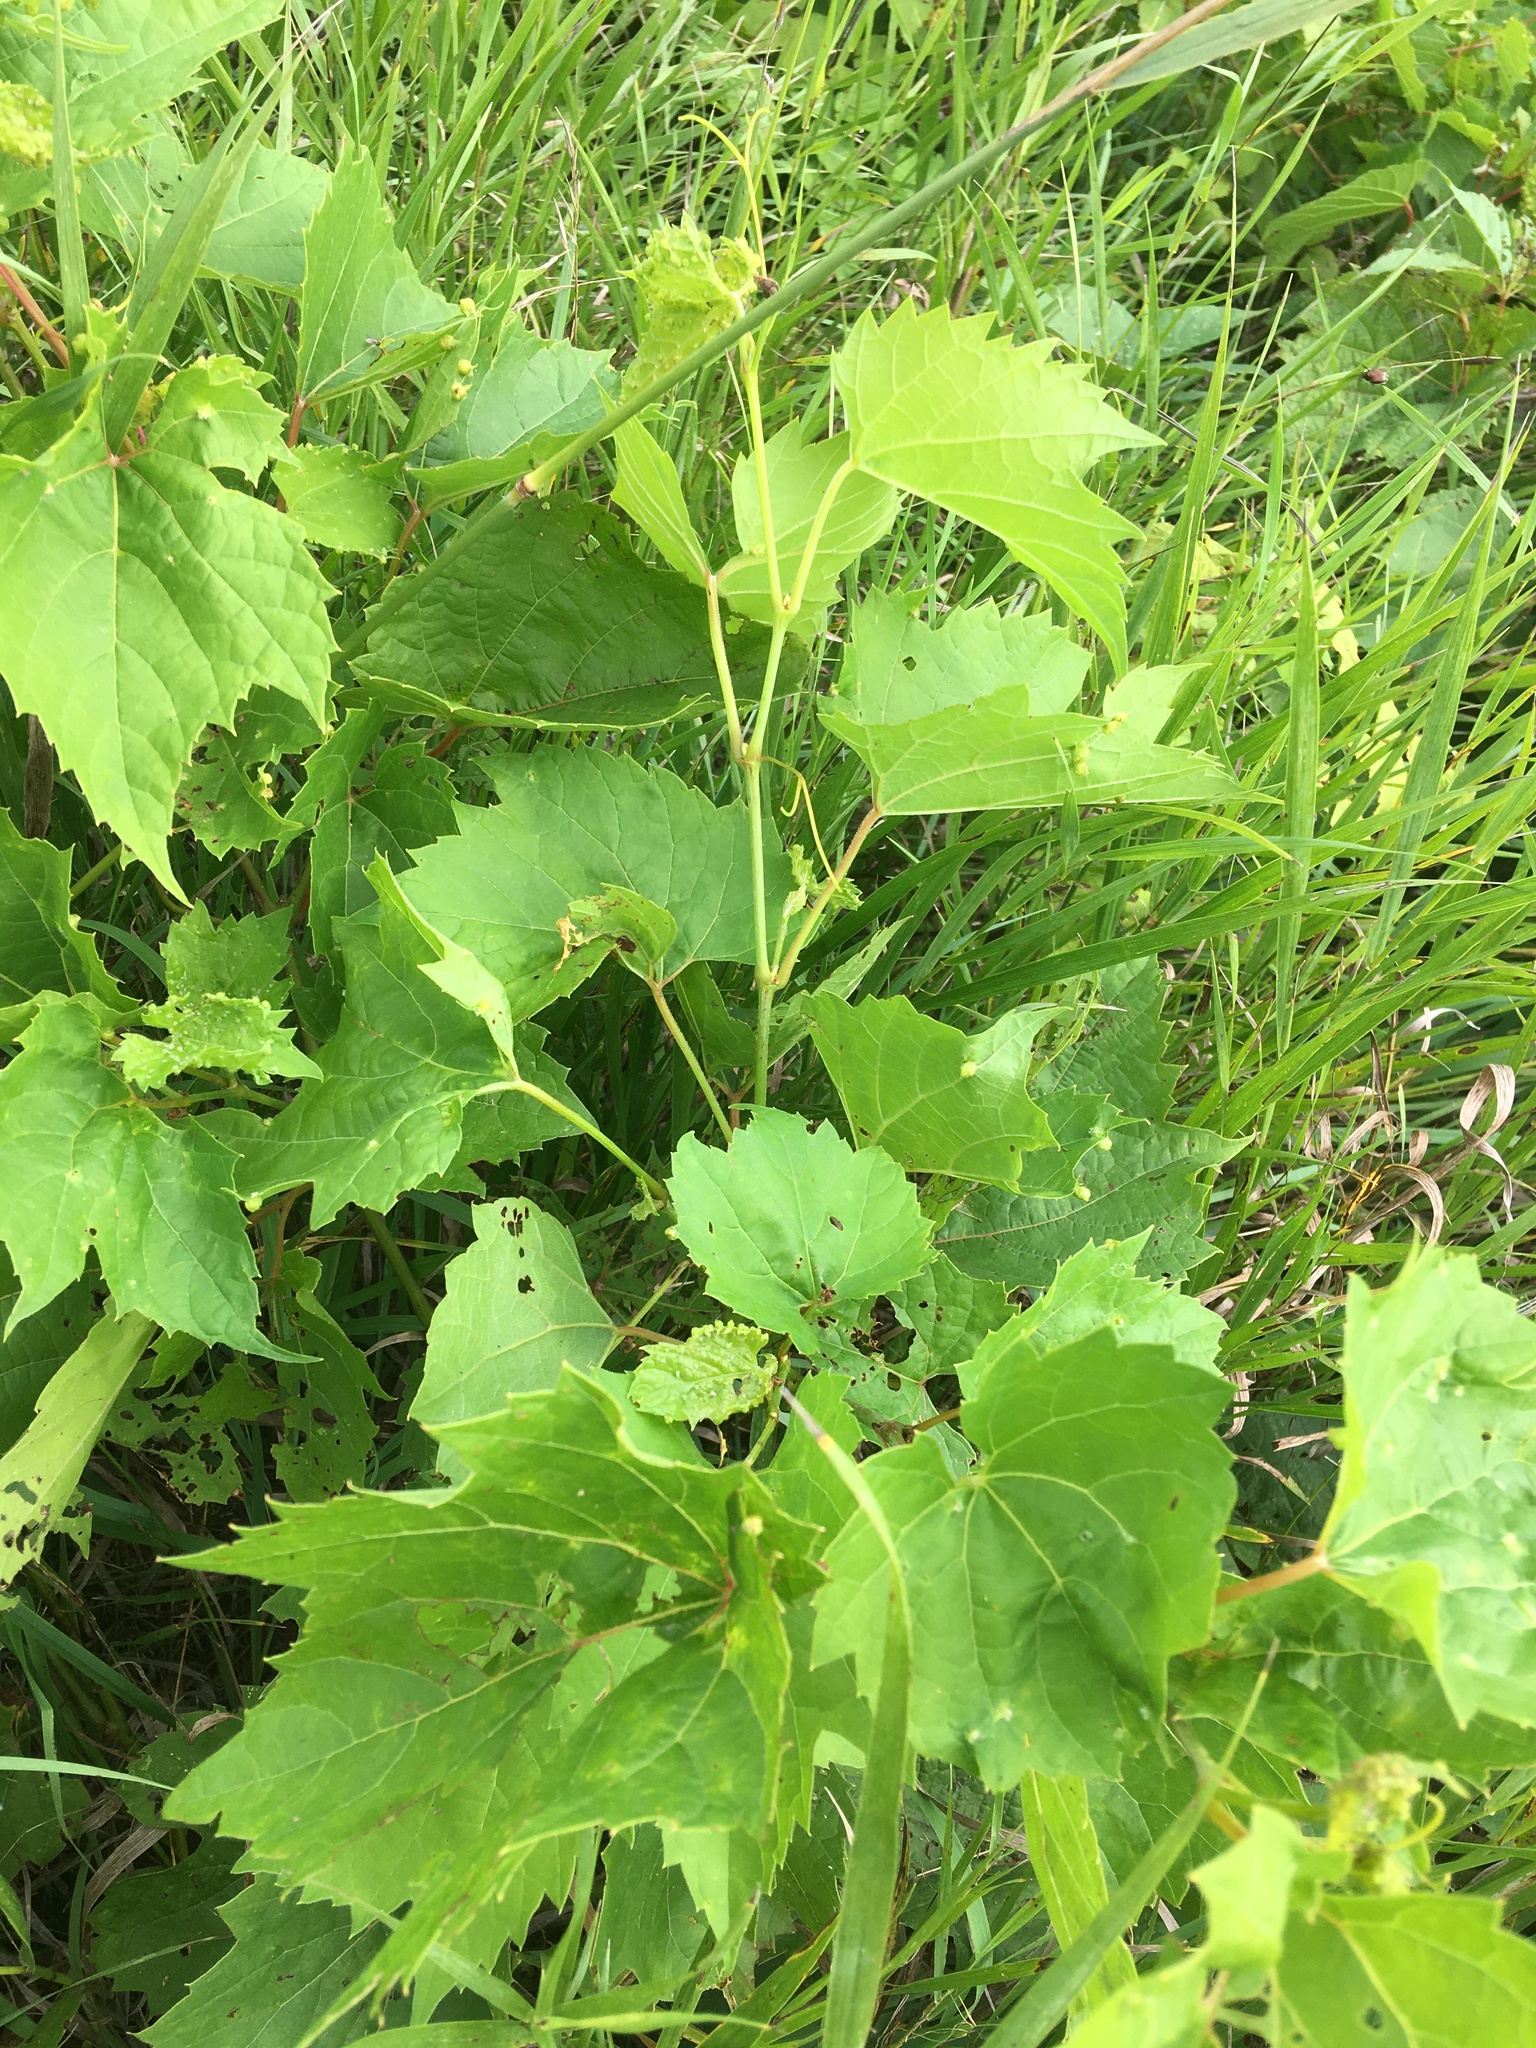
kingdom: Plantae
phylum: Tracheophyta
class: Magnoliopsida
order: Vitales
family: Vitaceae
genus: Vitis
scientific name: Vitis riparia
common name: Frost grape
